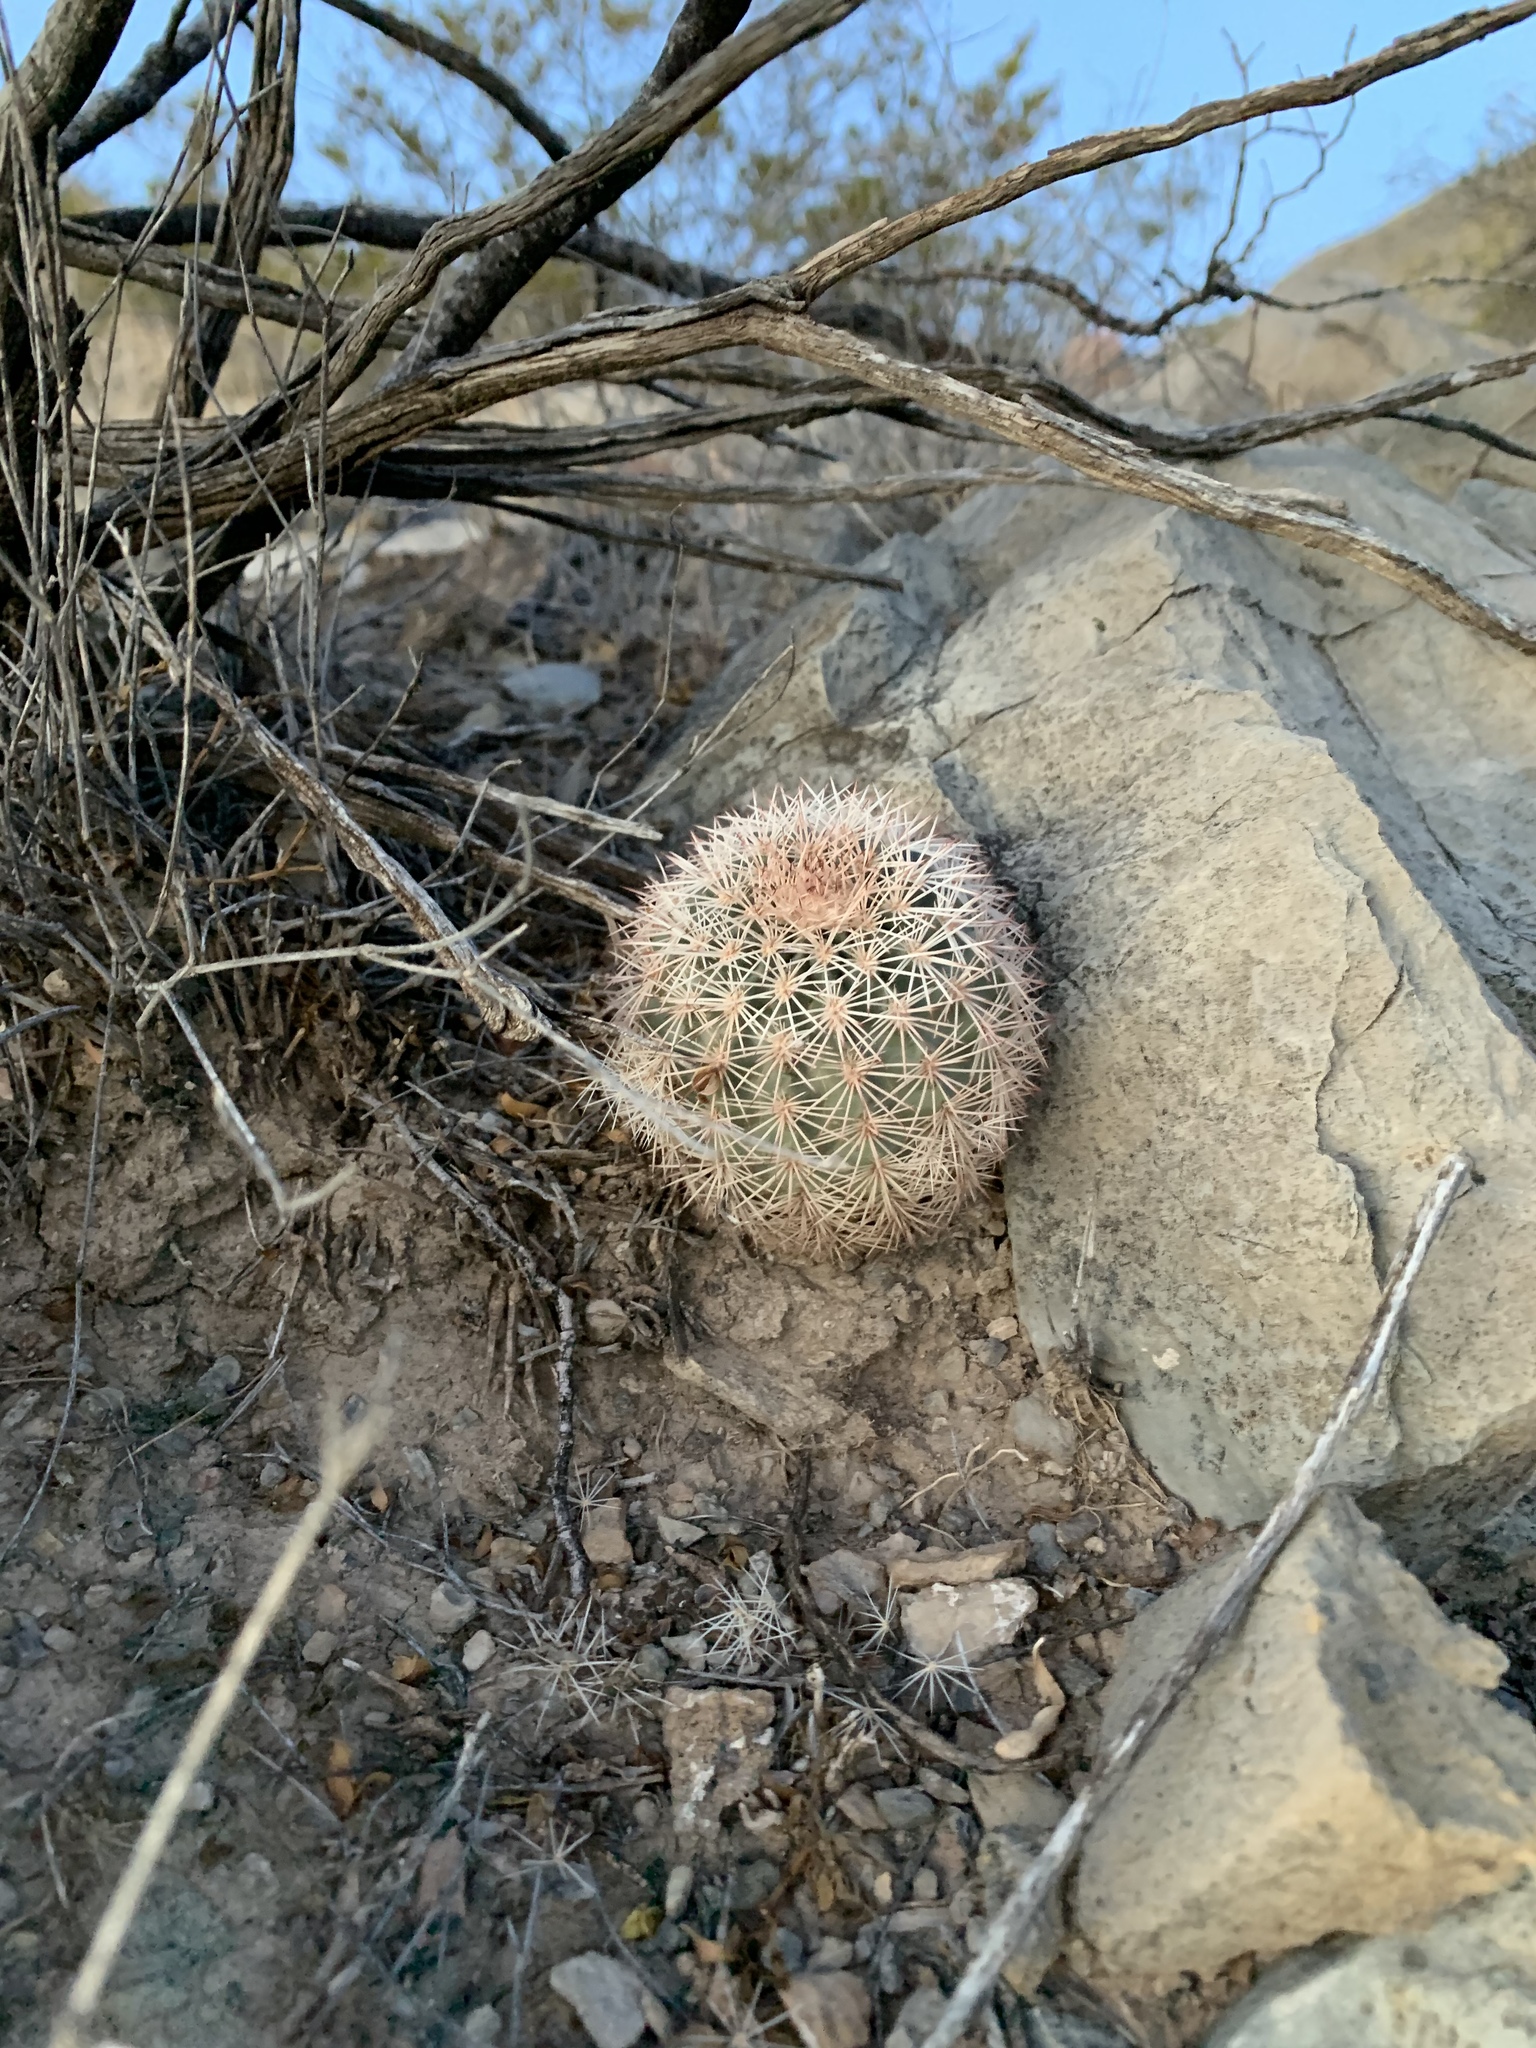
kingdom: Plantae
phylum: Tracheophyta
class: Magnoliopsida
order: Caryophyllales
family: Cactaceae
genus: Echinocereus
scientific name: Echinocereus dasyacanthus
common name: Spiny hedgehog cactus
